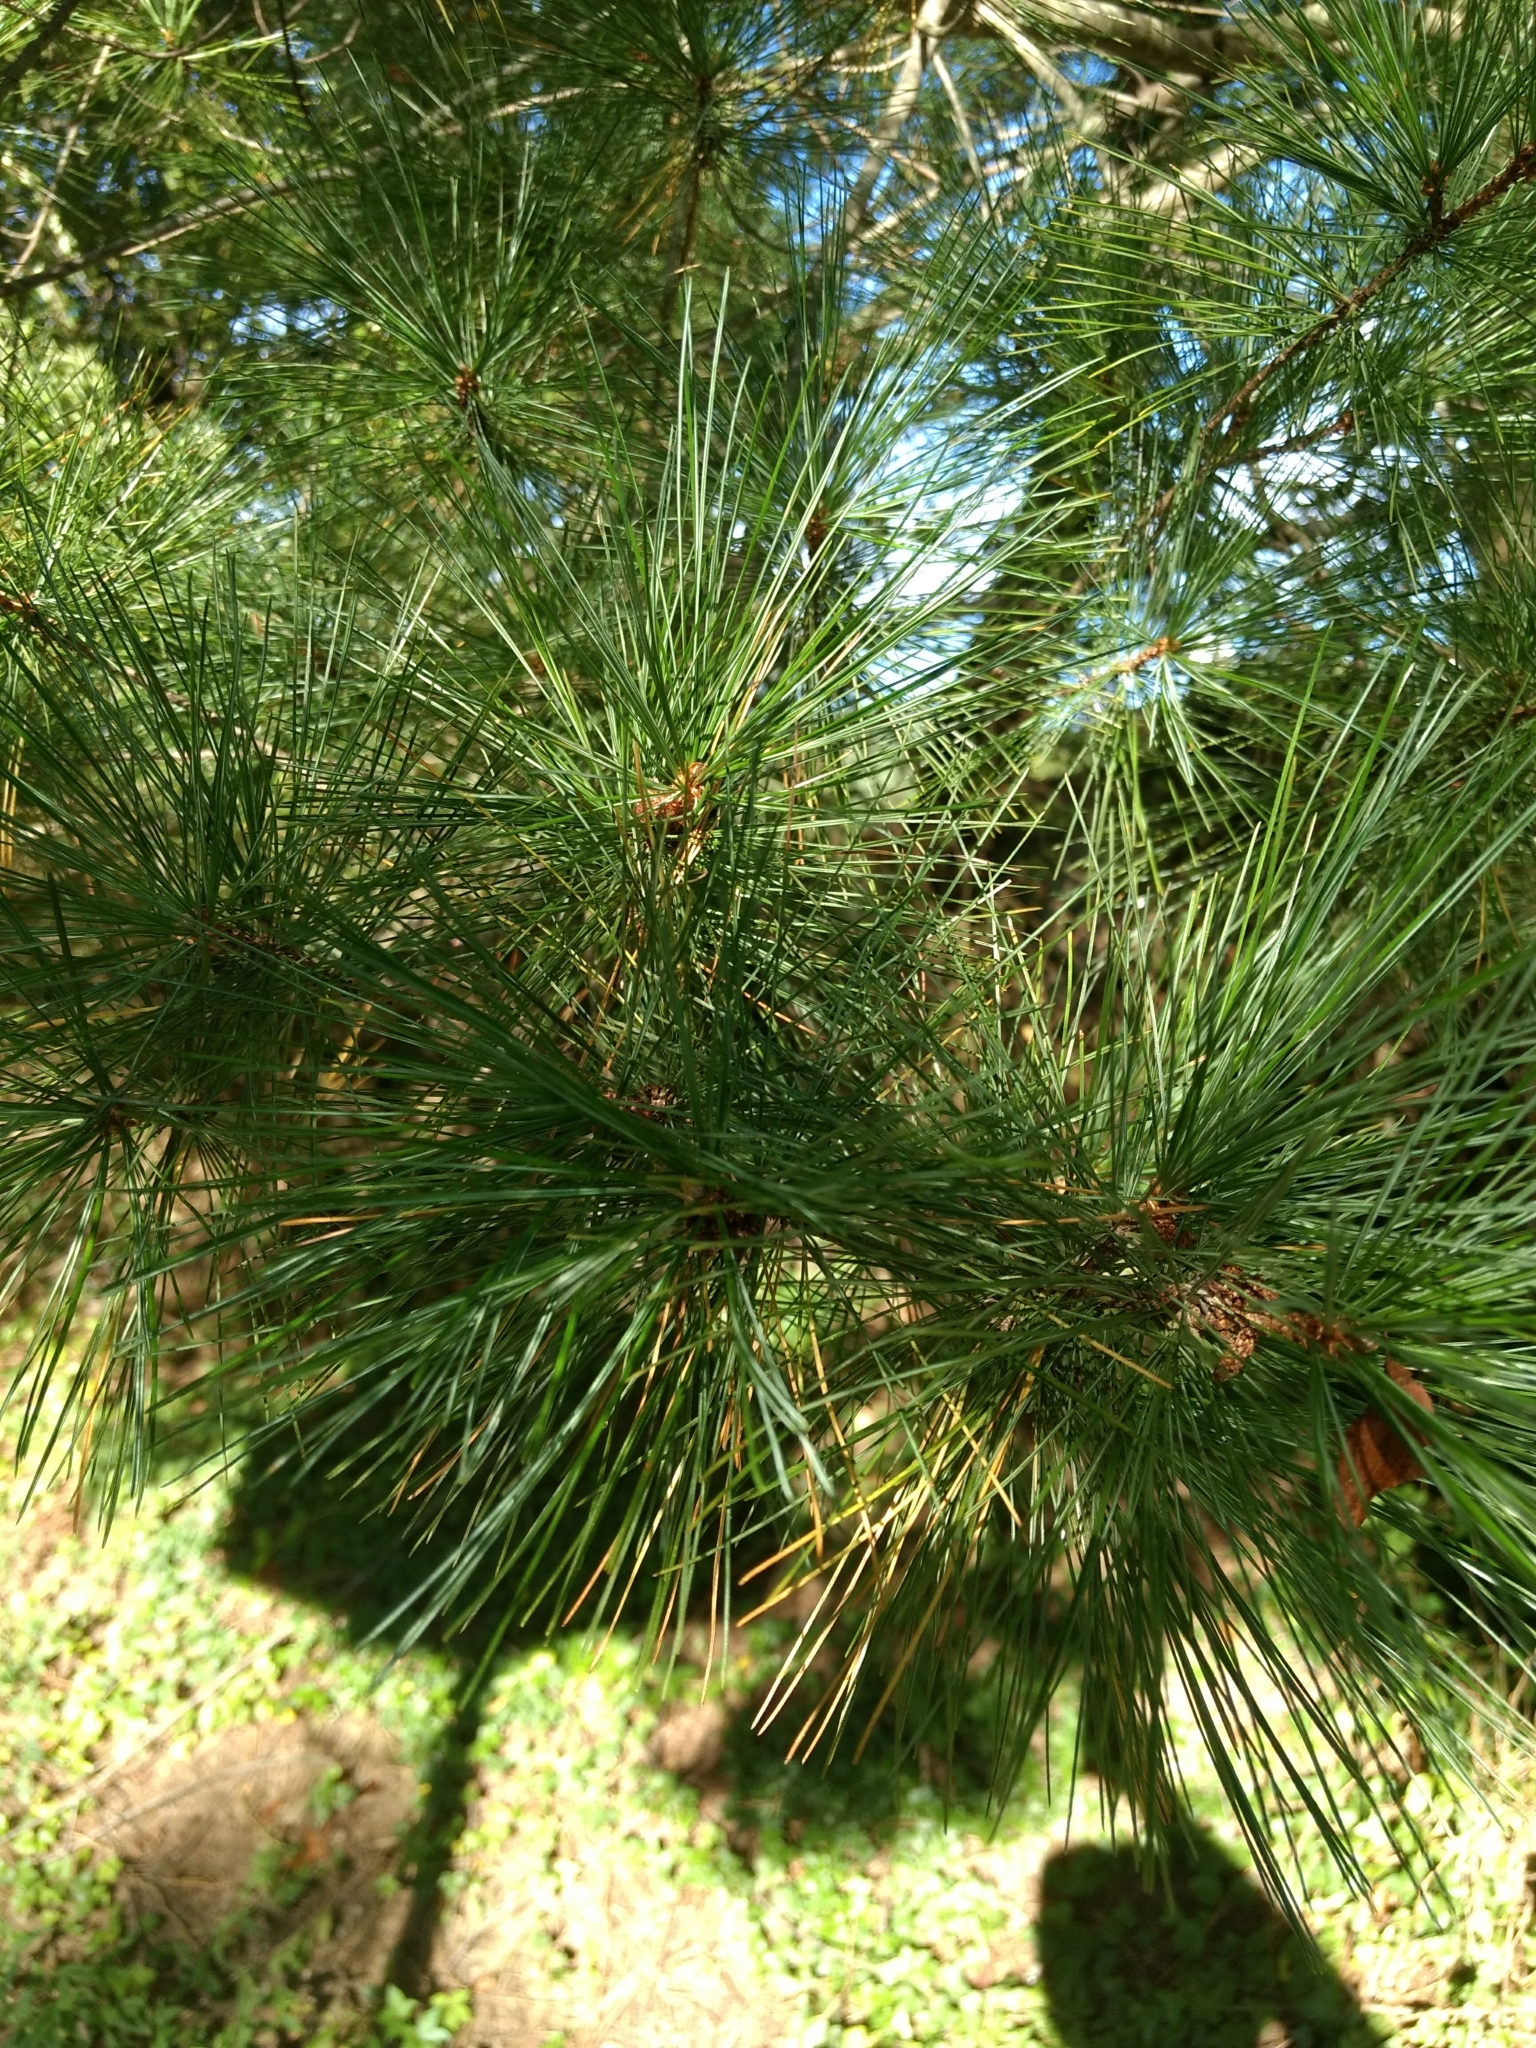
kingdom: Plantae
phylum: Tracheophyta
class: Pinopsida
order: Pinales
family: Pinaceae
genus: Pinus
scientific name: Pinus strobus
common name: Weymouth pine
